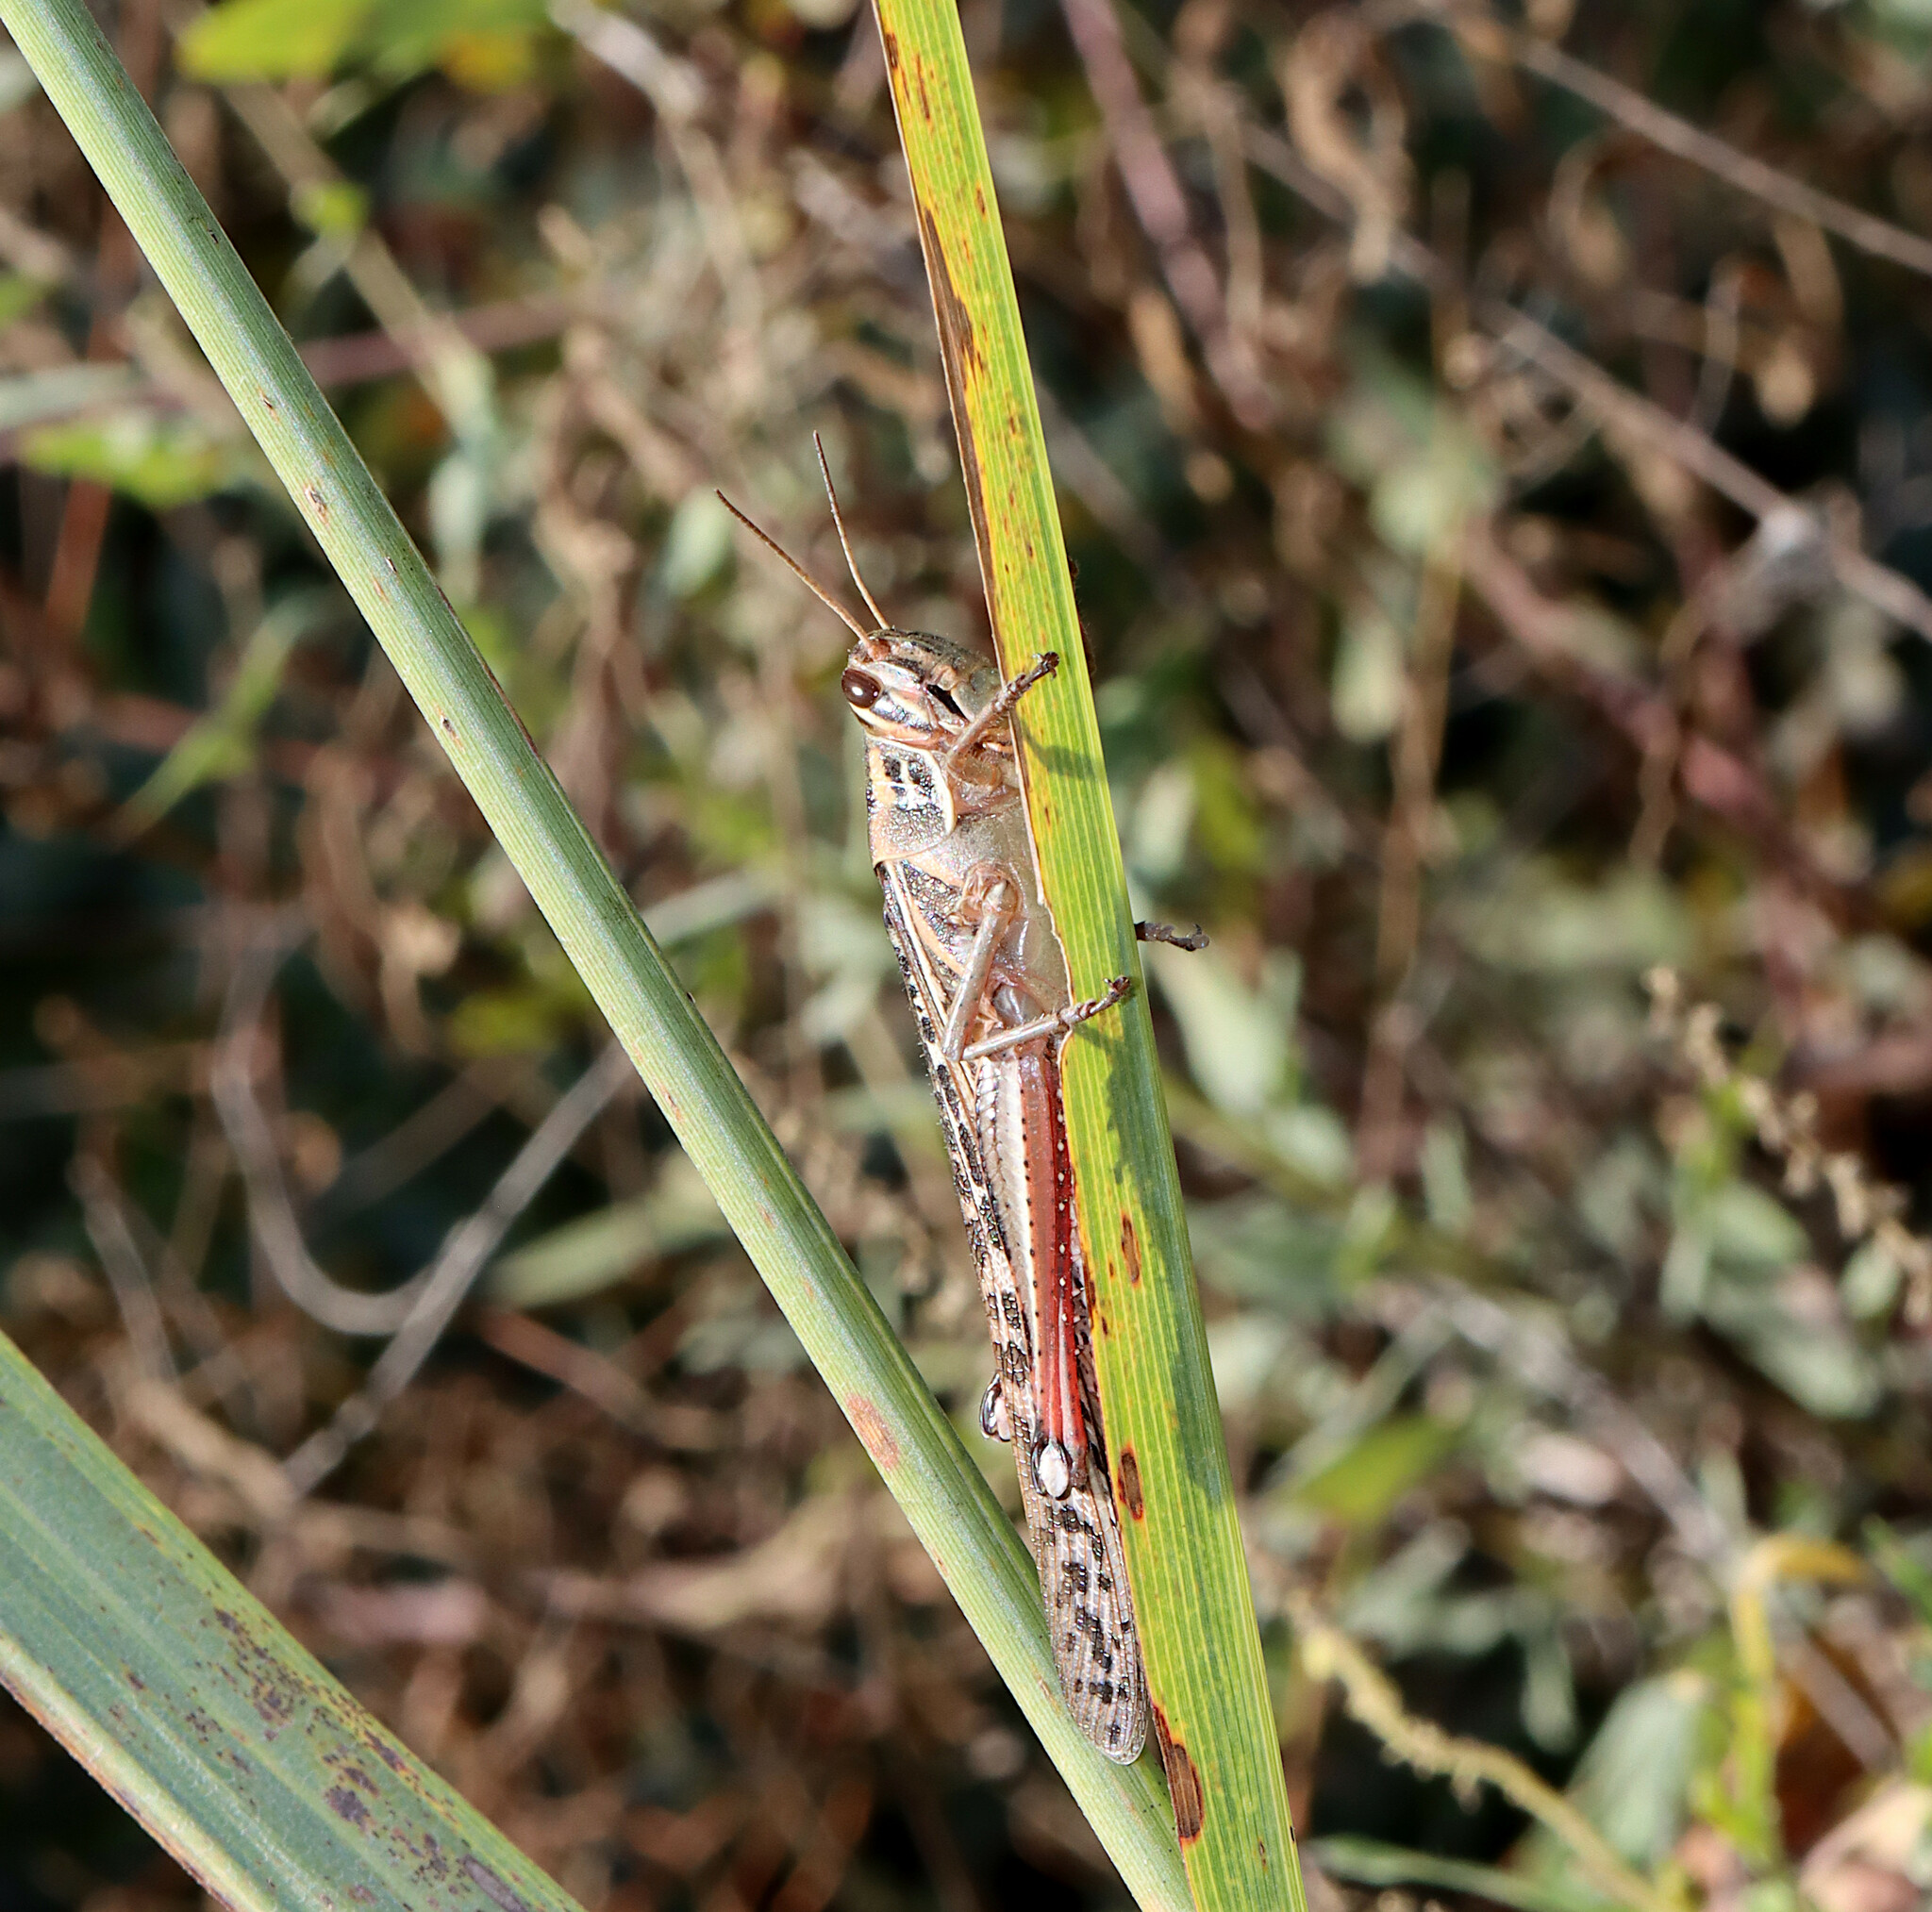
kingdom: Animalia
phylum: Arthropoda
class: Insecta
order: Orthoptera
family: Acrididae
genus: Schistocerca
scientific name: Schistocerca americana
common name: American bird locust
